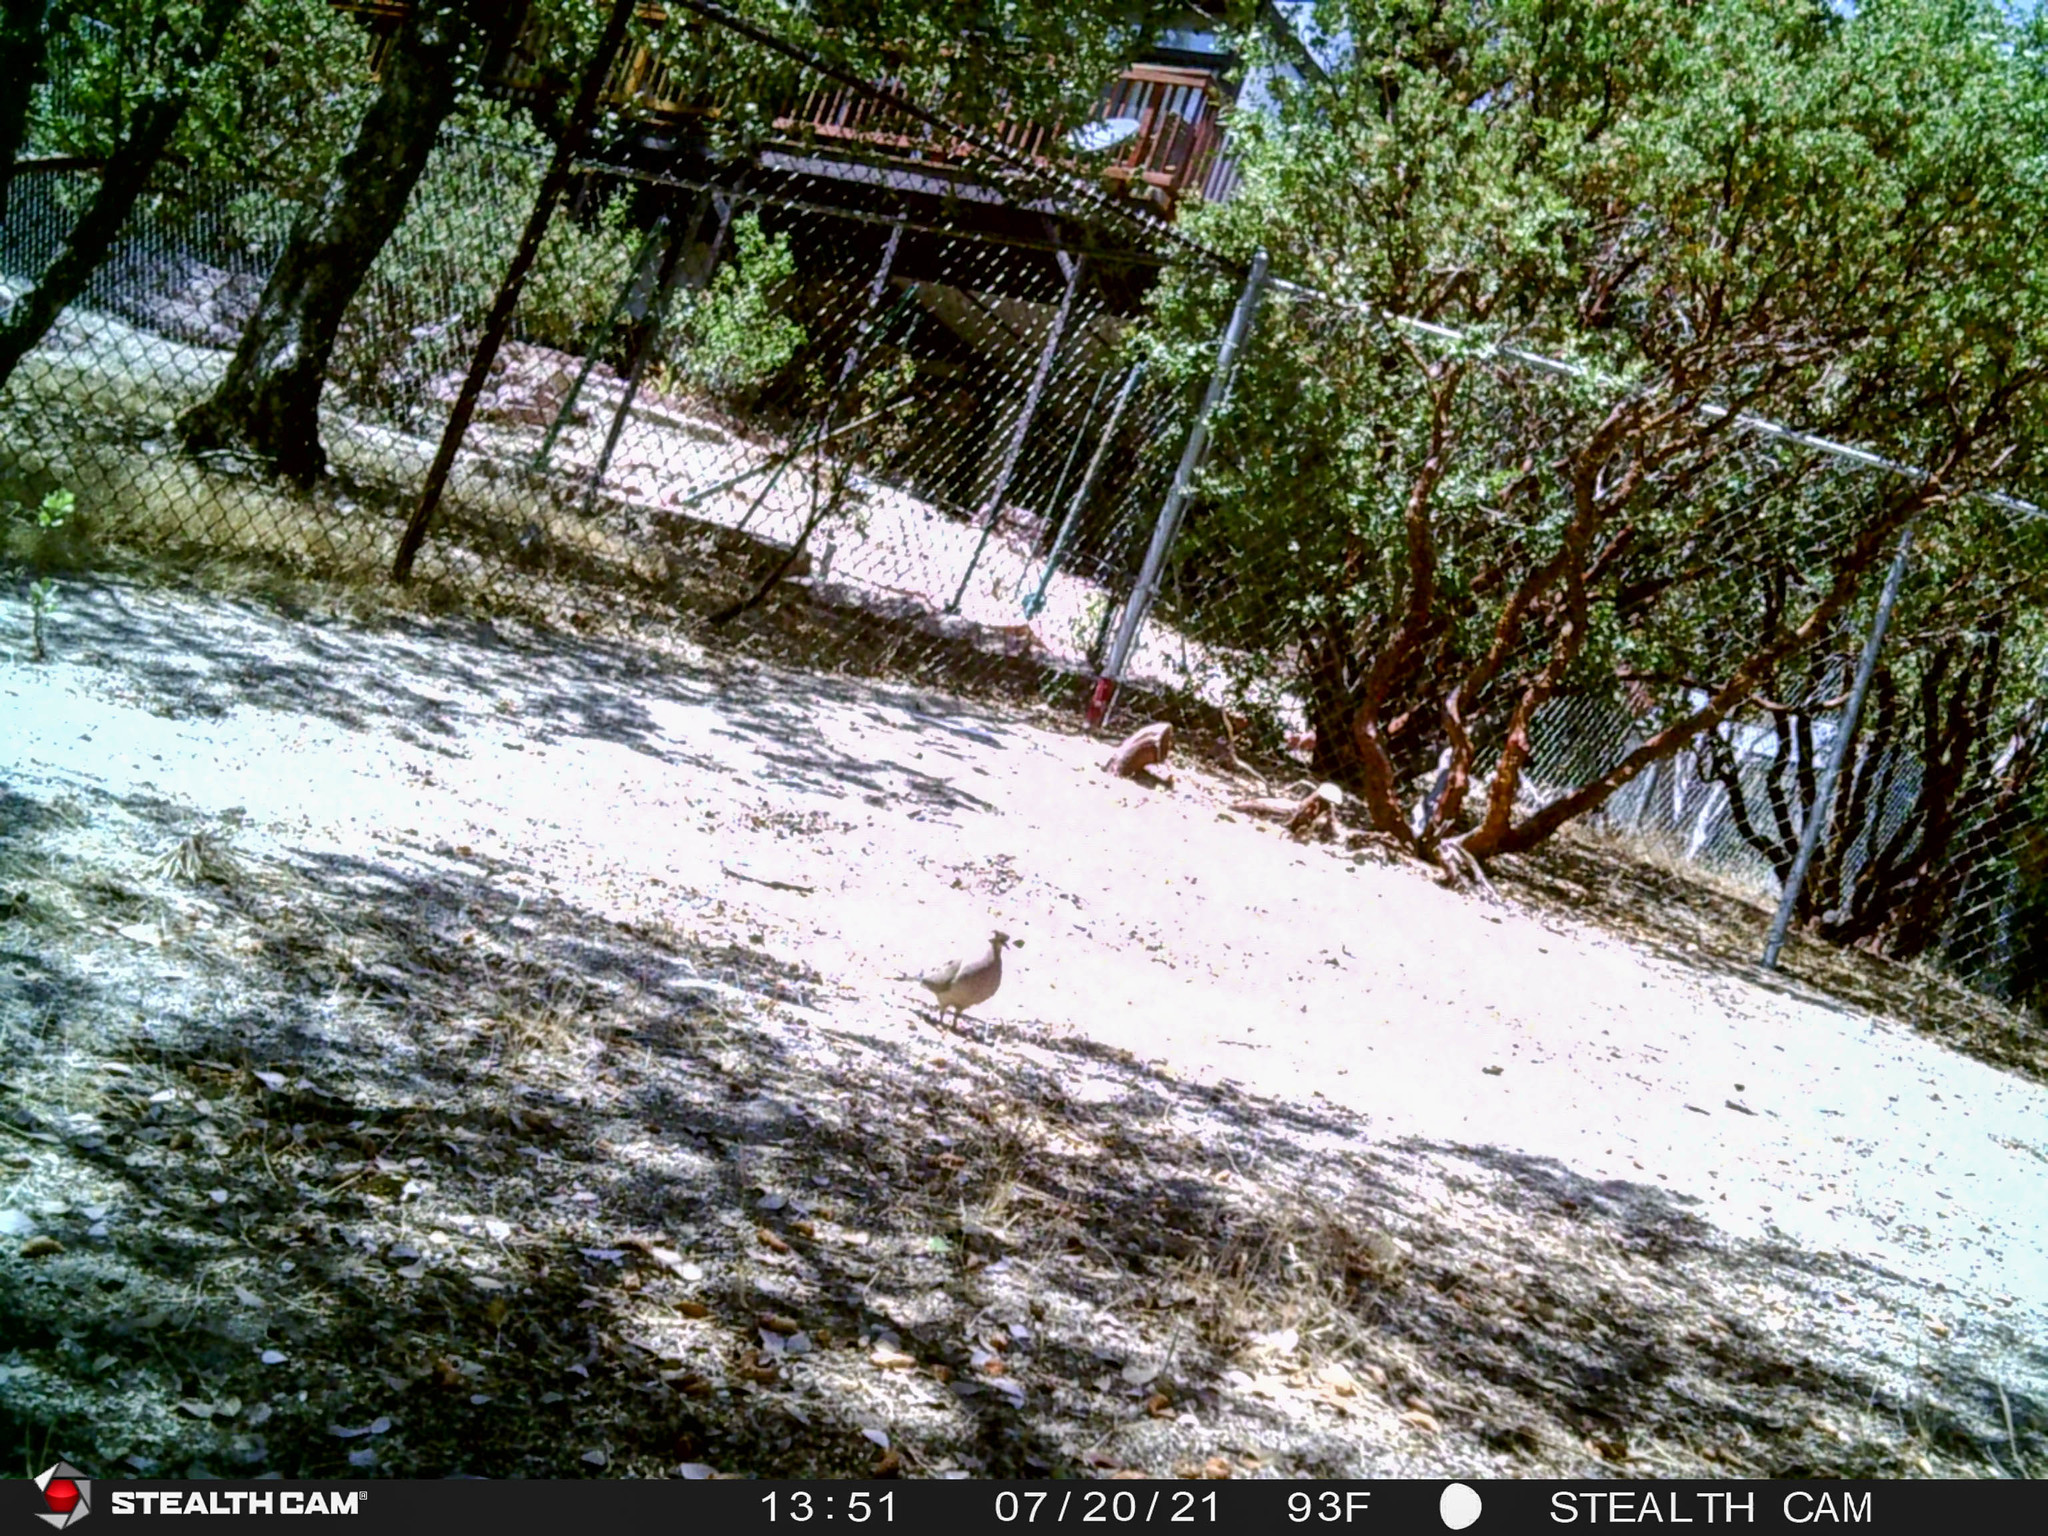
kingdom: Animalia
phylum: Chordata
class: Aves
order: Columbiformes
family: Columbidae
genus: Zenaida
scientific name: Zenaida macroura
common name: Mourning dove
